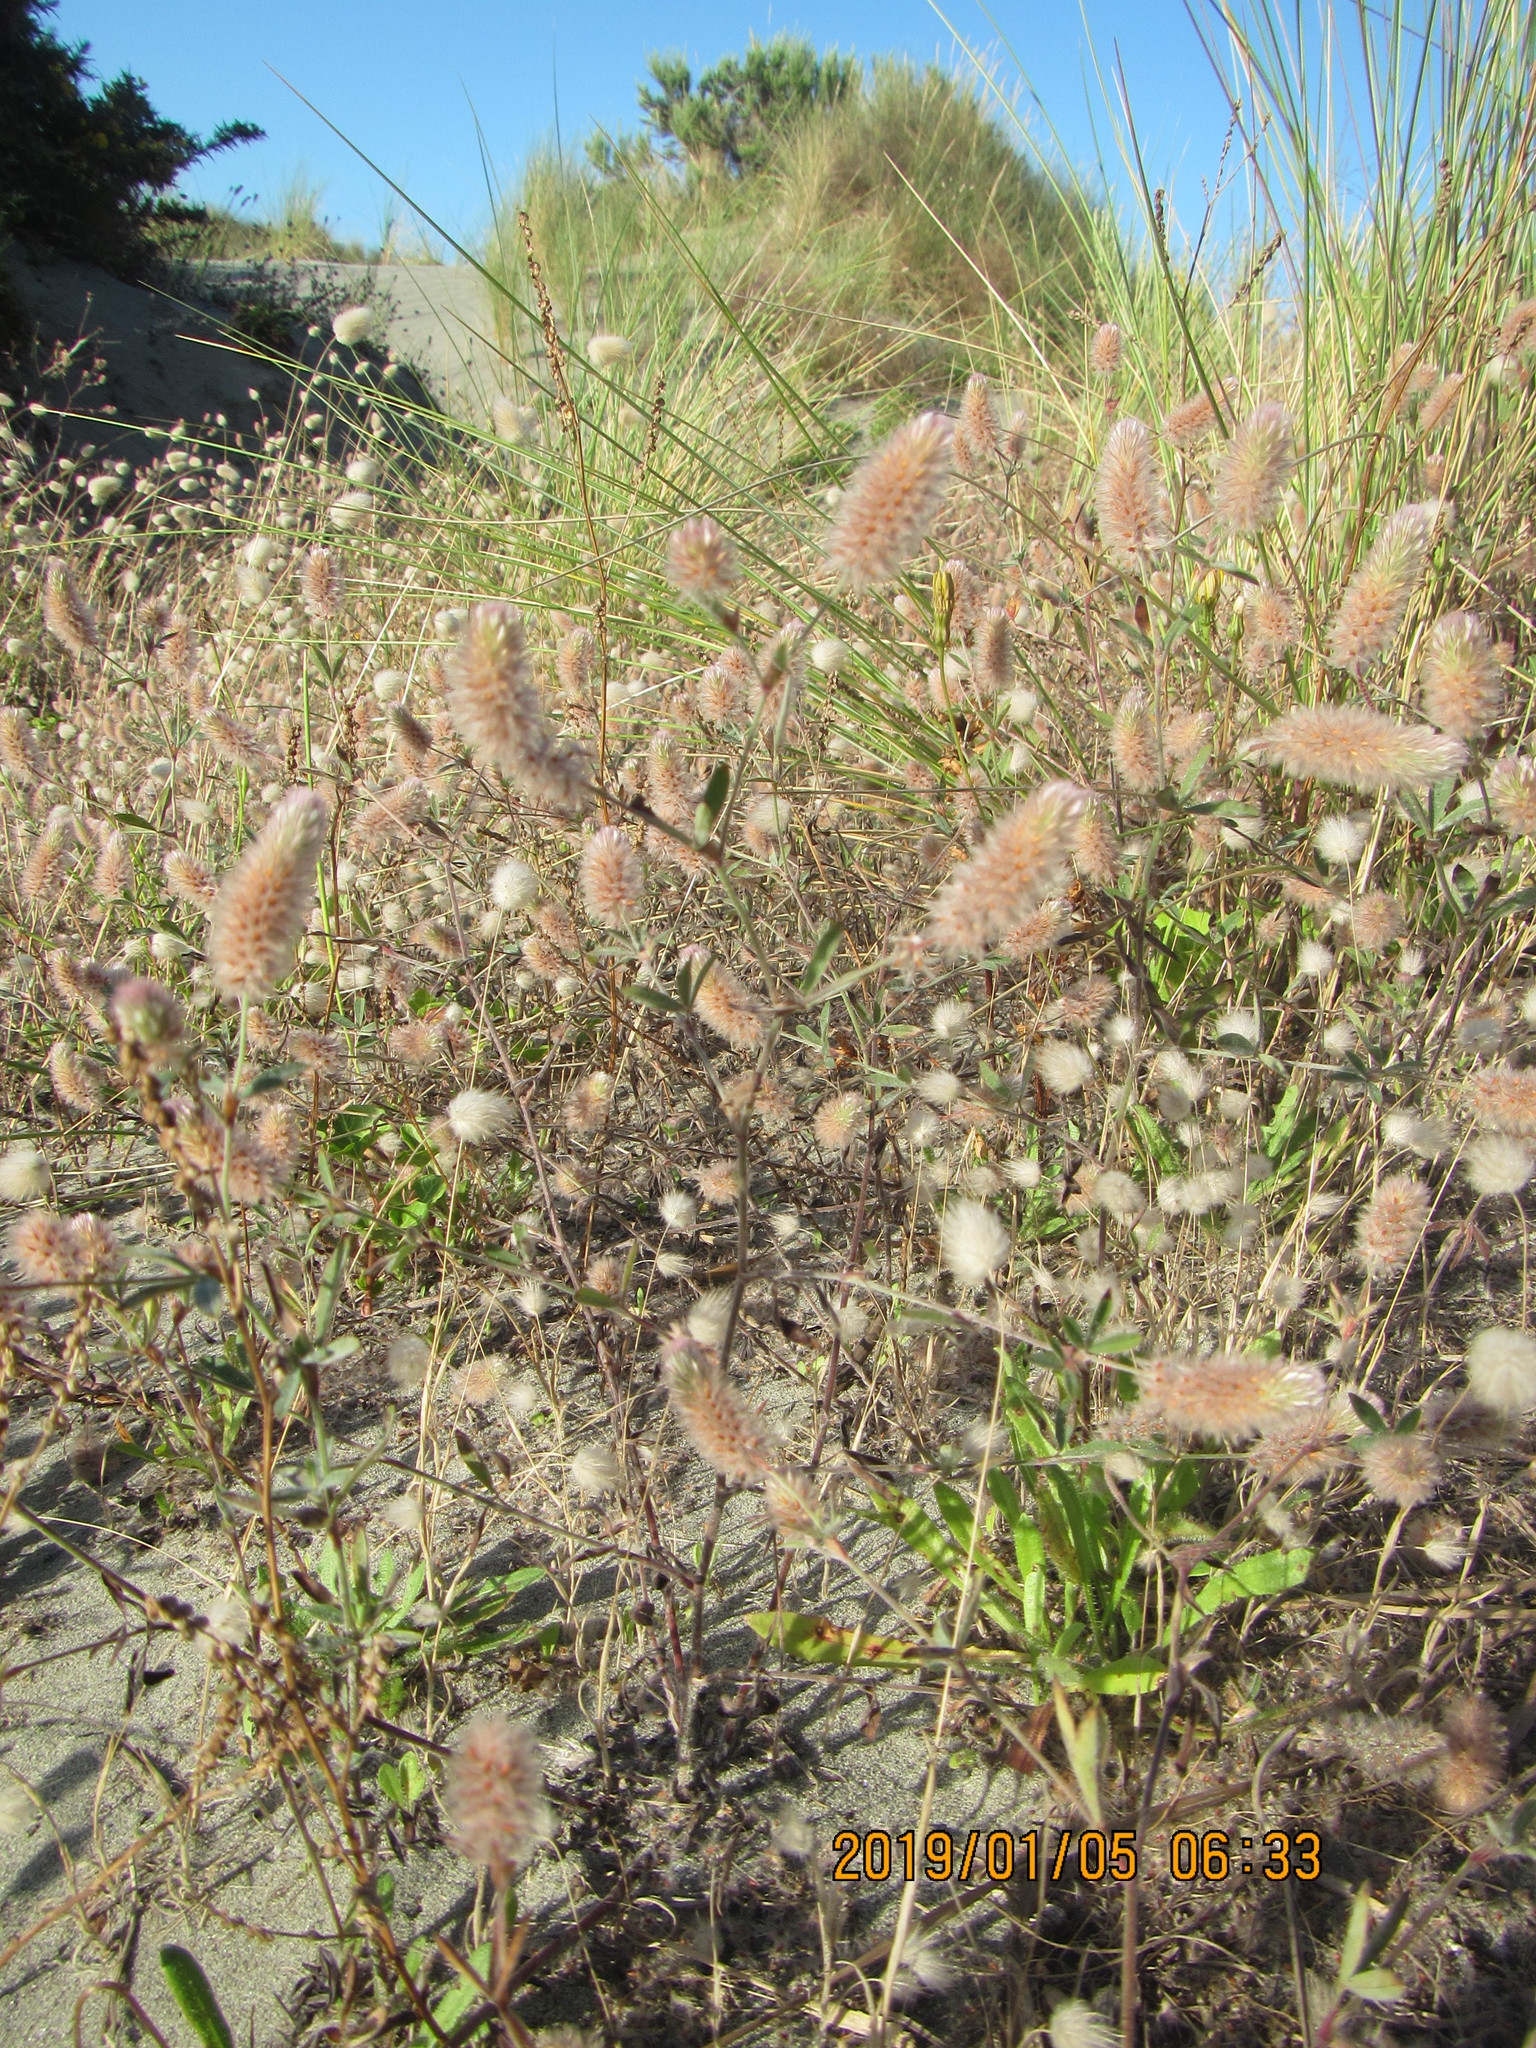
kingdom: Plantae
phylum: Tracheophyta
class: Magnoliopsida
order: Fabales
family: Fabaceae
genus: Trifolium
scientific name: Trifolium arvense
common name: Hare's-foot clover
